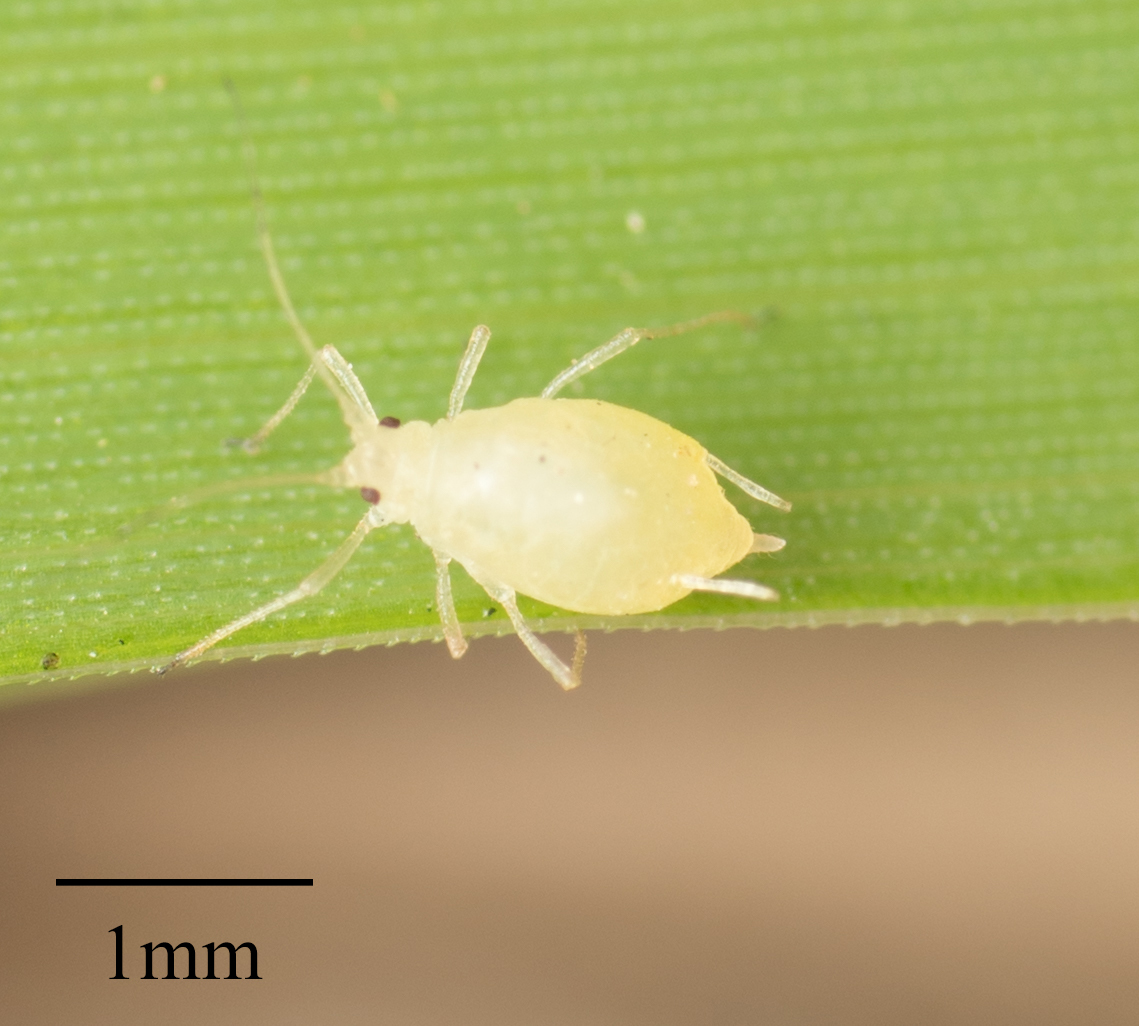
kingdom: Animalia
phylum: Arthropoda
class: Insecta
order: Hemiptera
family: Aphididae
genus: Myzus
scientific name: Myzus persicae
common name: Green peach aphid
